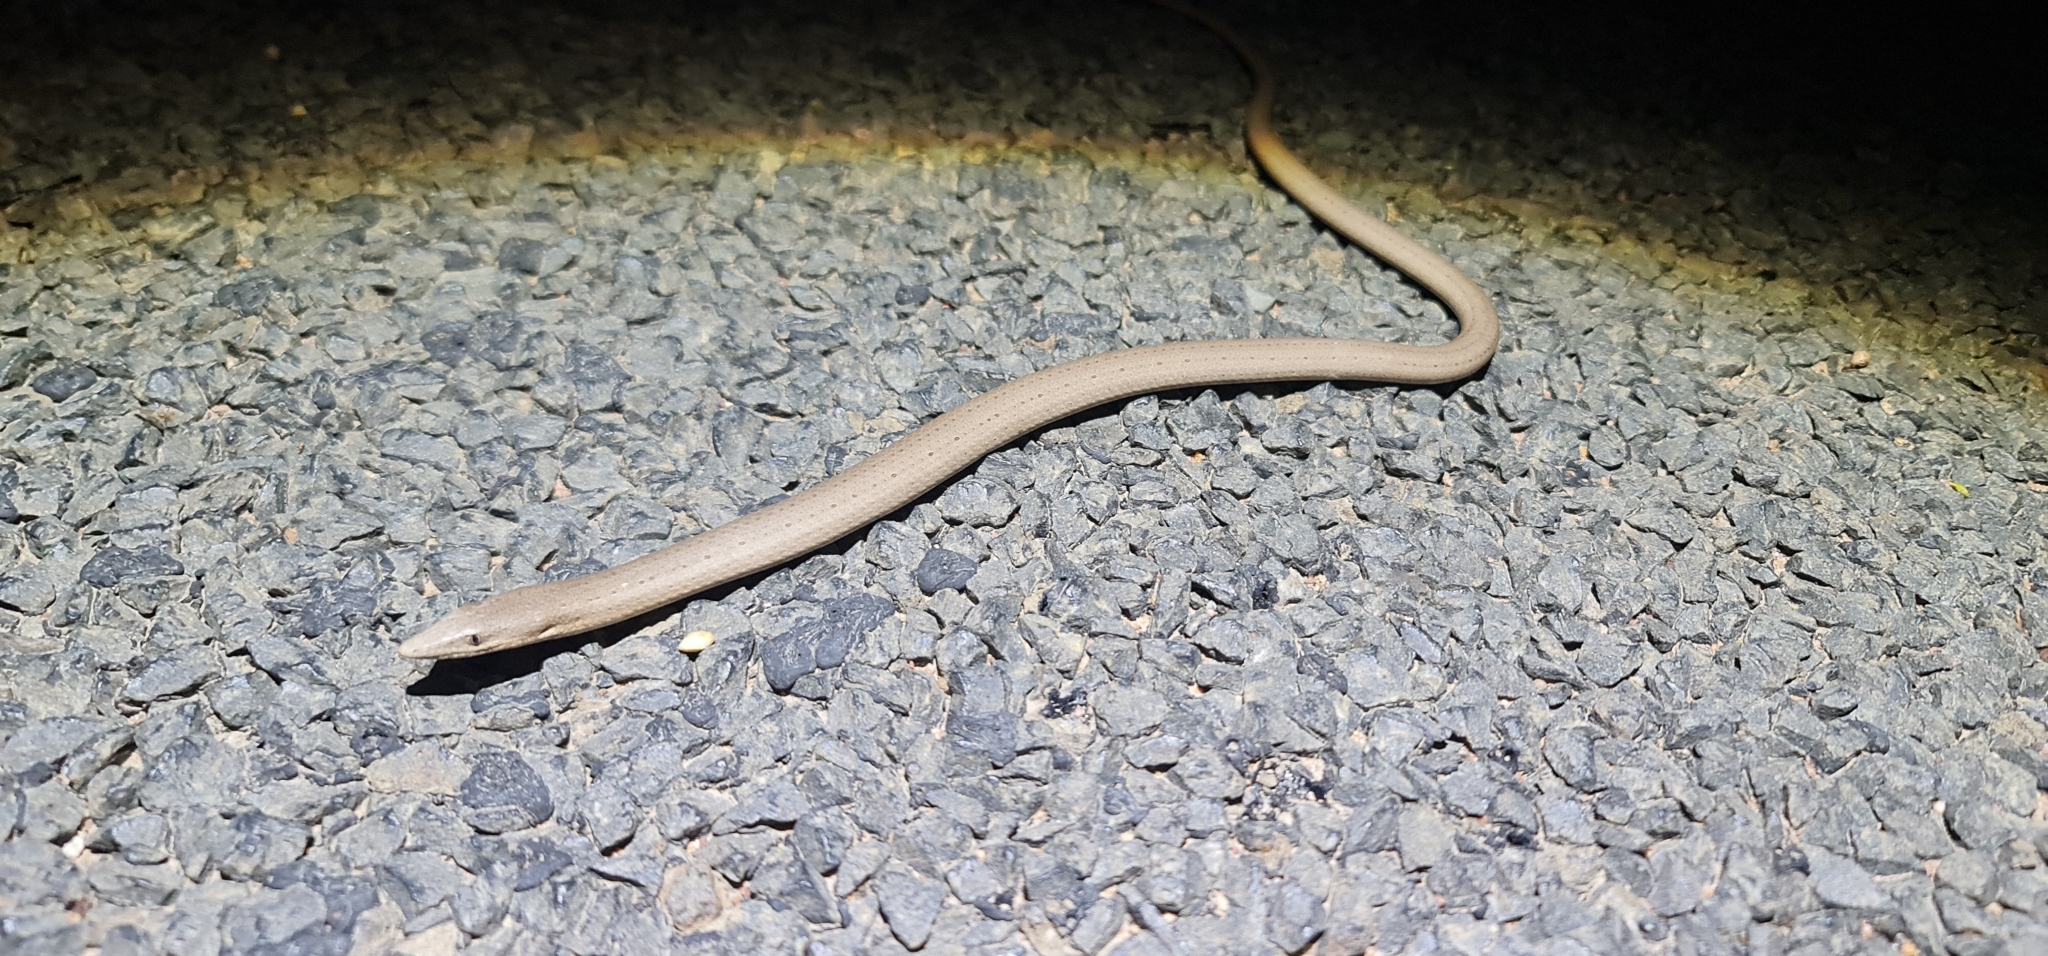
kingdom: Animalia
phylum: Chordata
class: Squamata
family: Pygopodidae
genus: Lialis
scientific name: Lialis burtonis
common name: Burton's legless lizard
